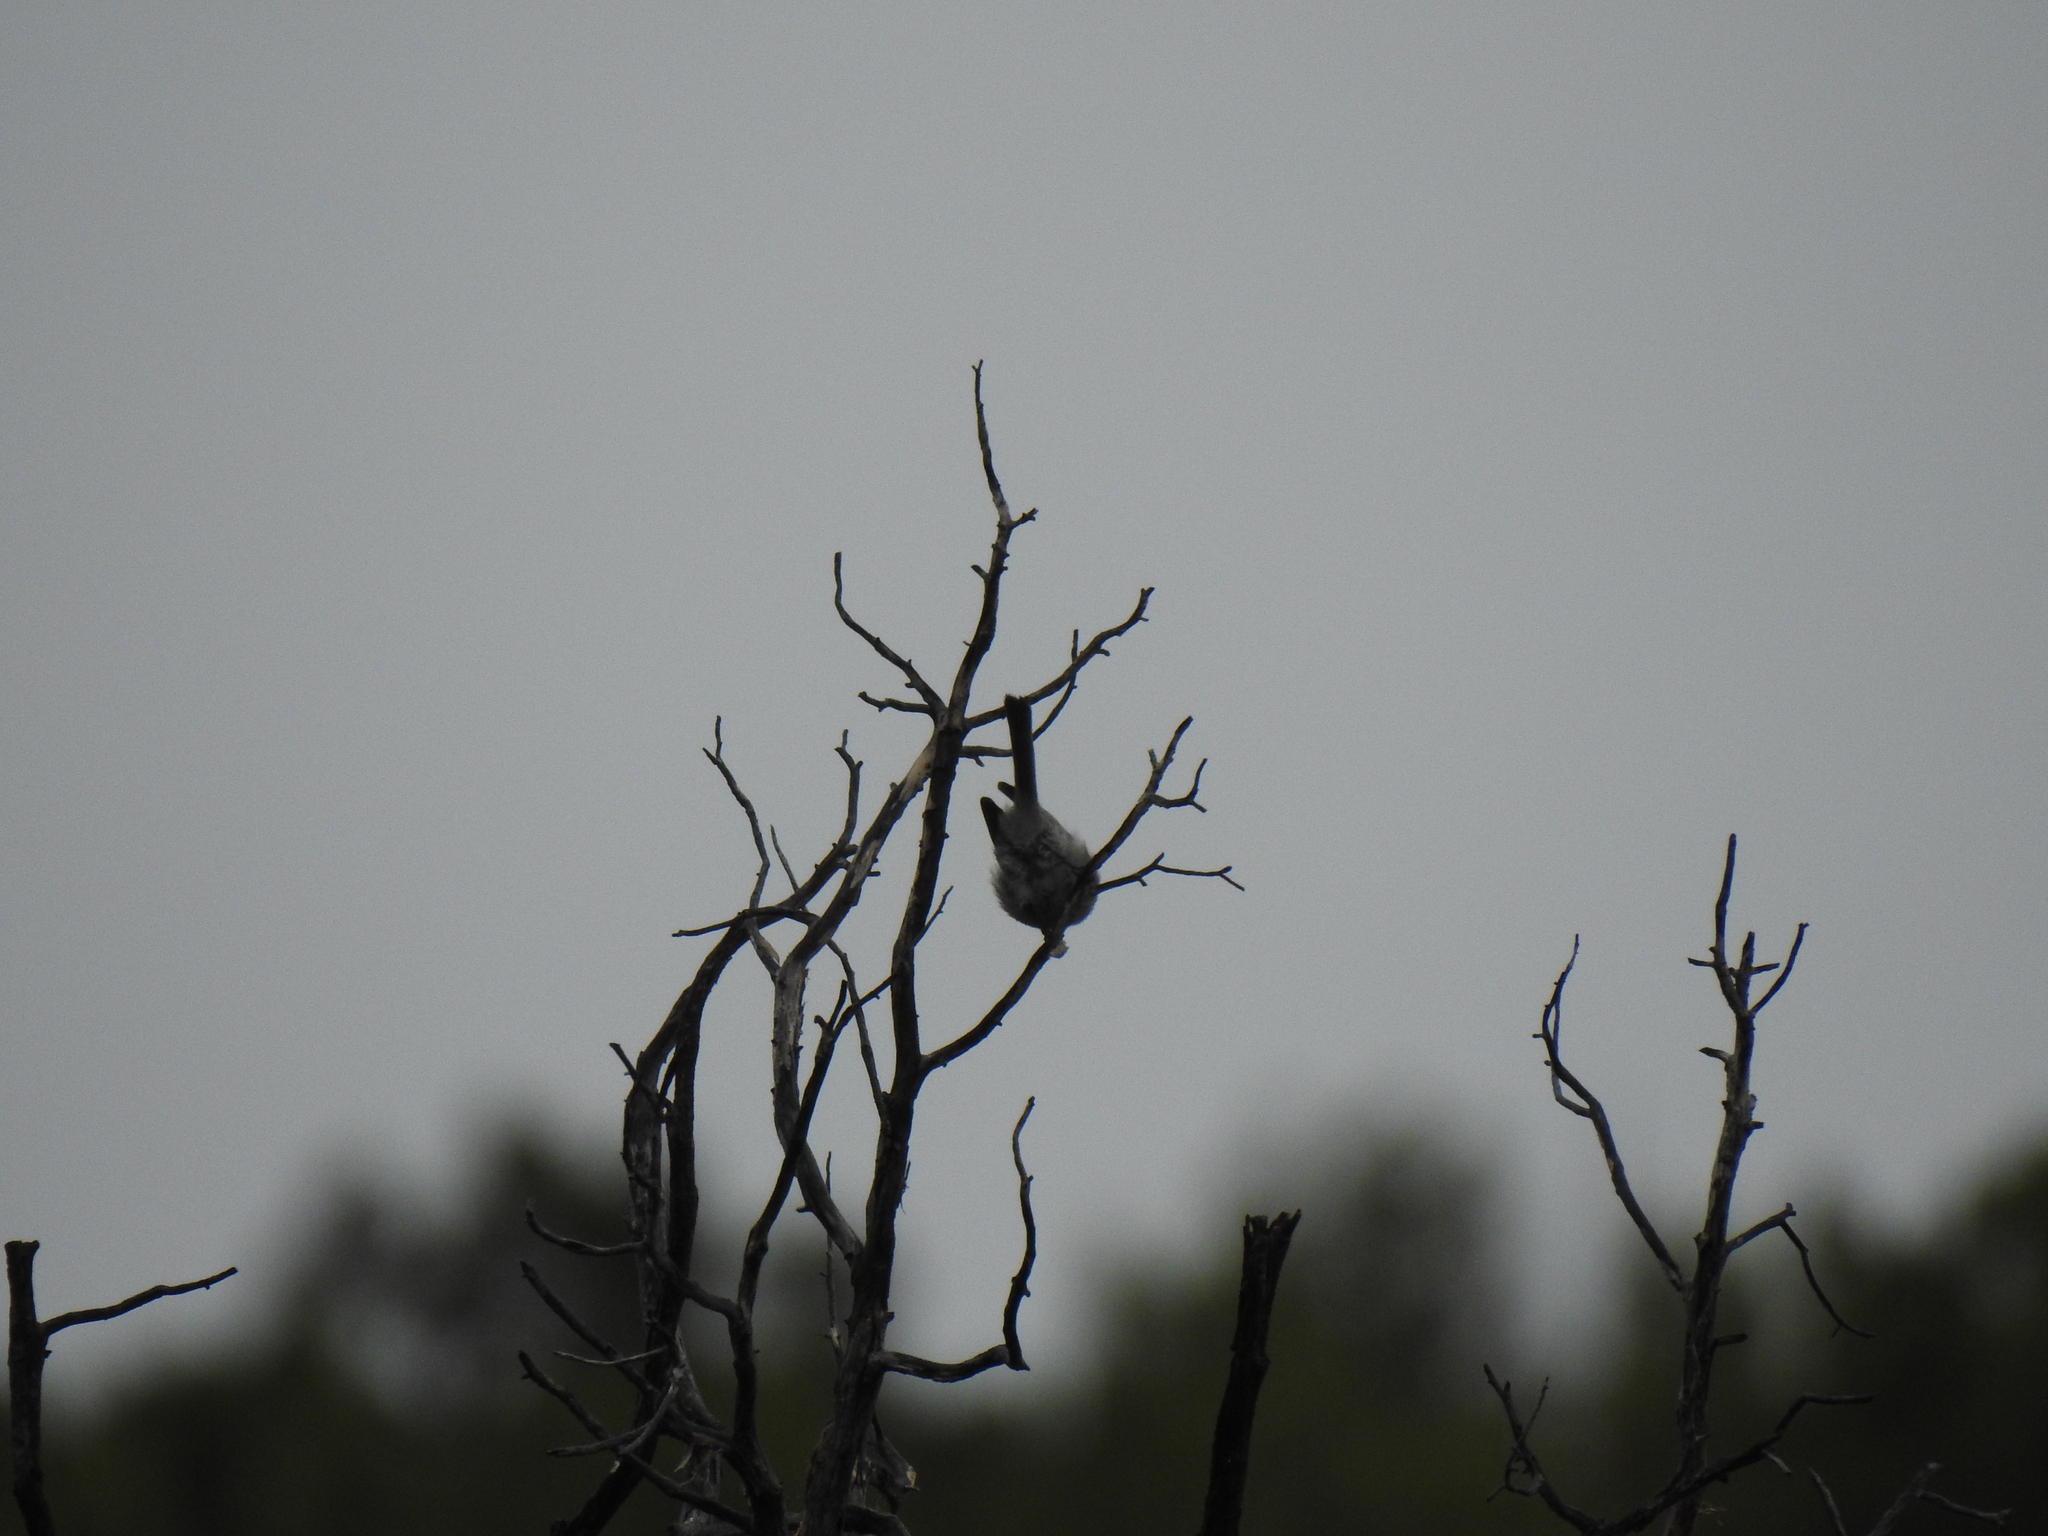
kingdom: Animalia
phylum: Chordata
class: Aves
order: Passeriformes
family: Aegithalidae
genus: Psaltriparus
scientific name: Psaltriparus minimus
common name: American bushtit
